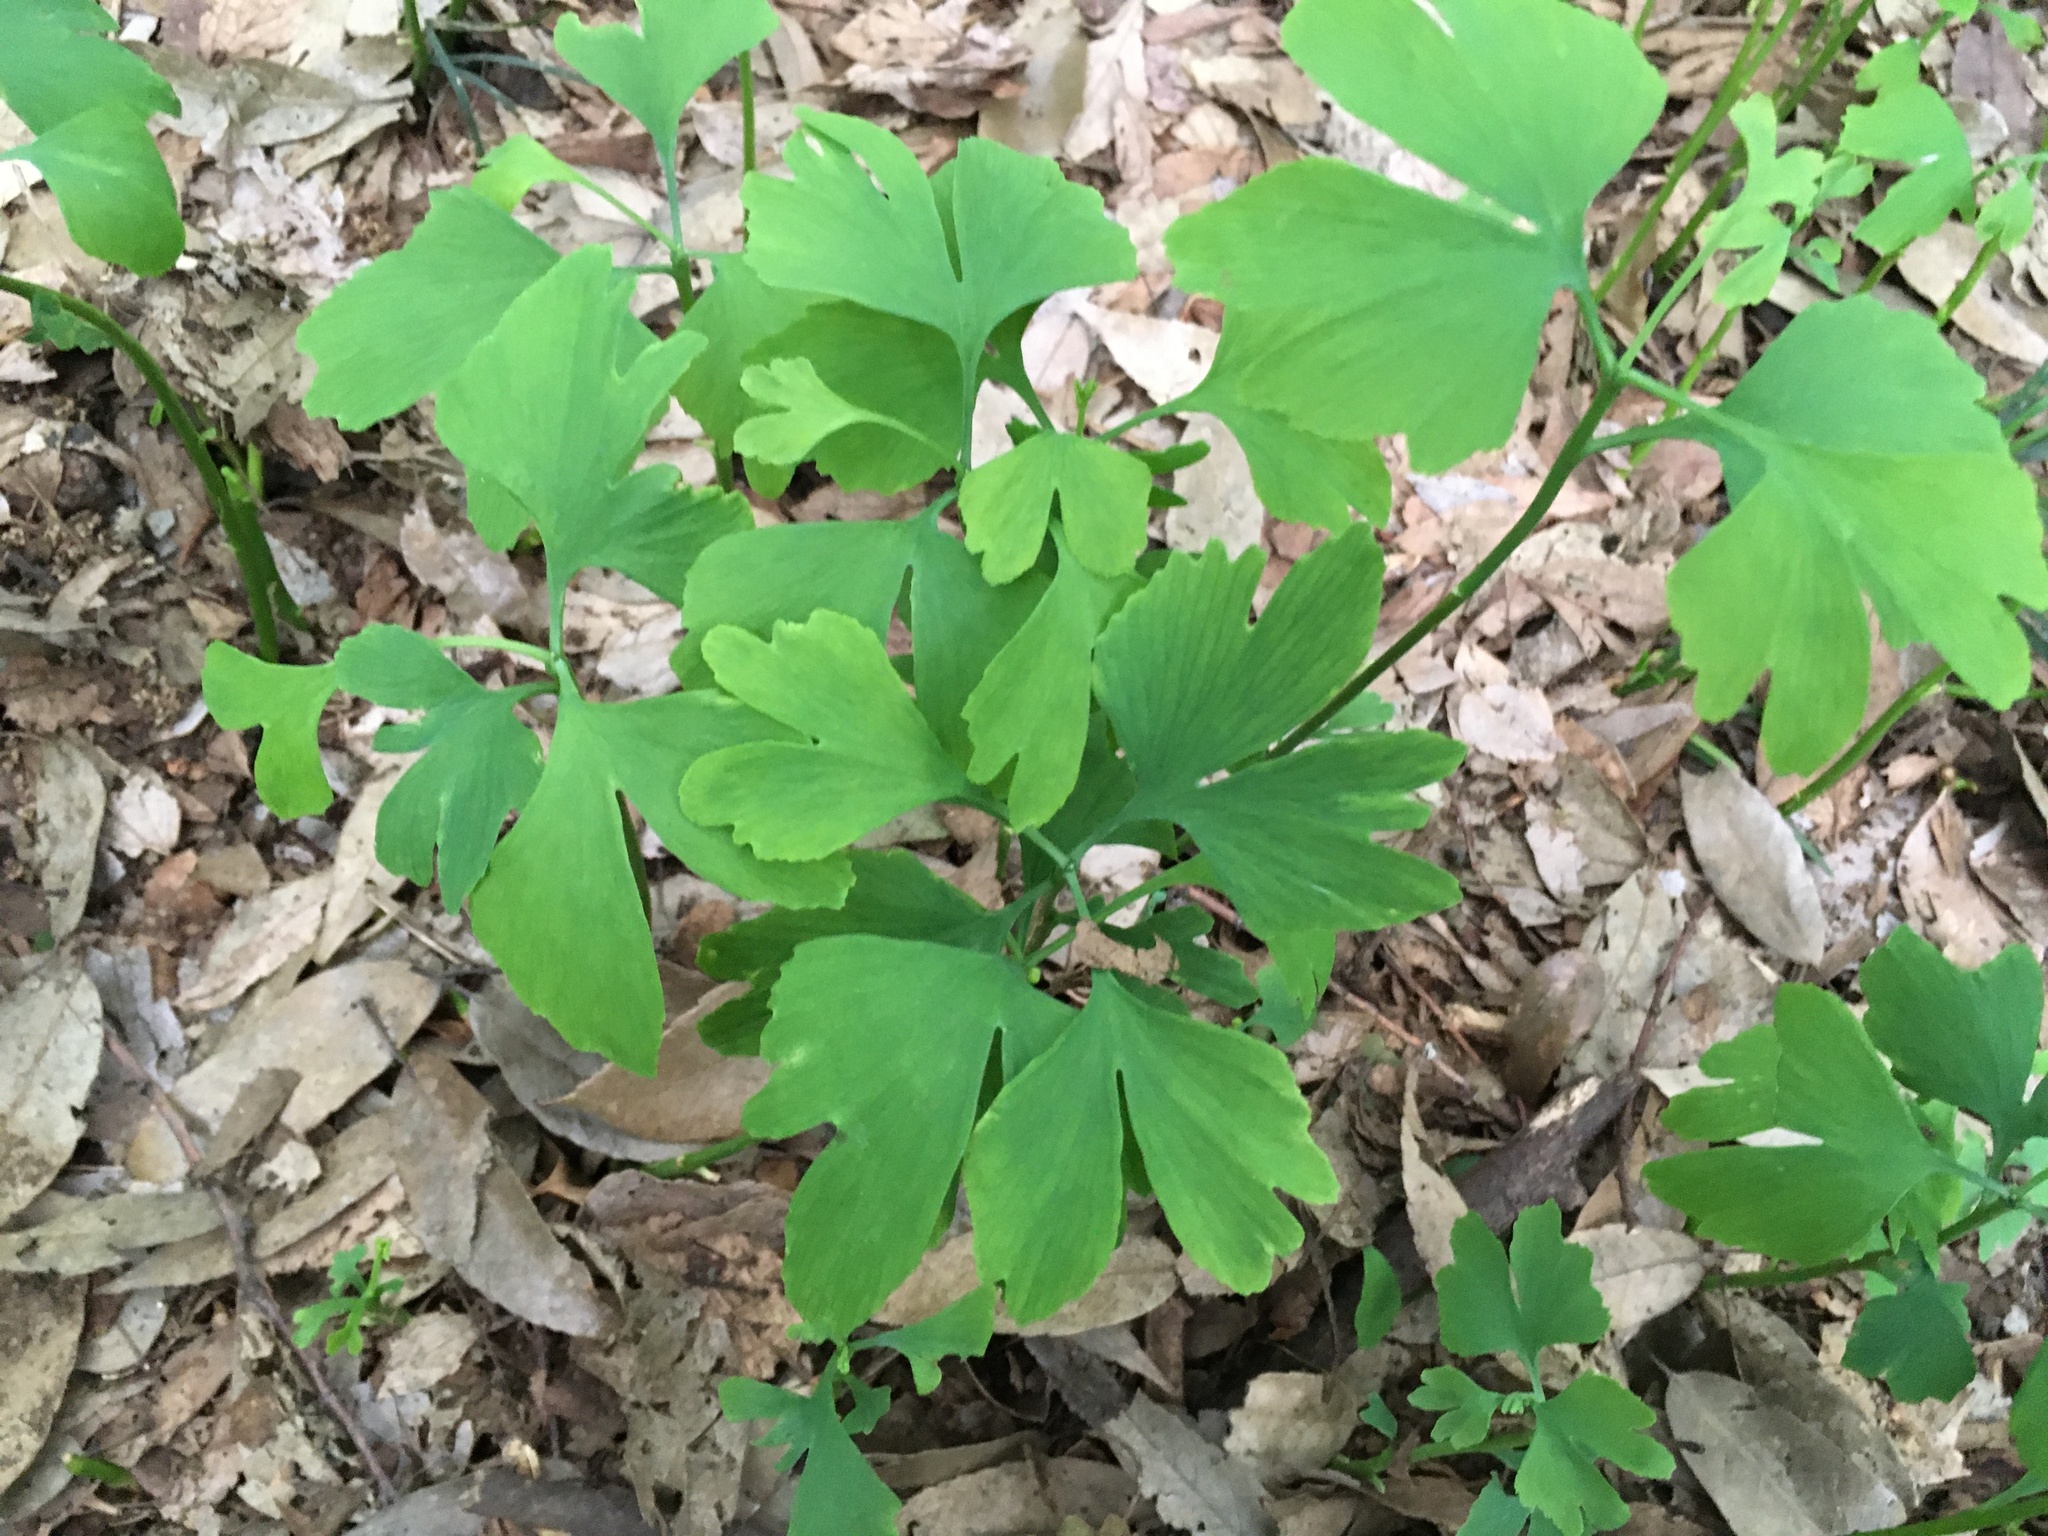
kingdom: Plantae
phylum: Tracheophyta
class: Ginkgoopsida
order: Ginkgoales
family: Ginkgoaceae
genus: Ginkgo
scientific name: Ginkgo biloba
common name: Ginkgo
